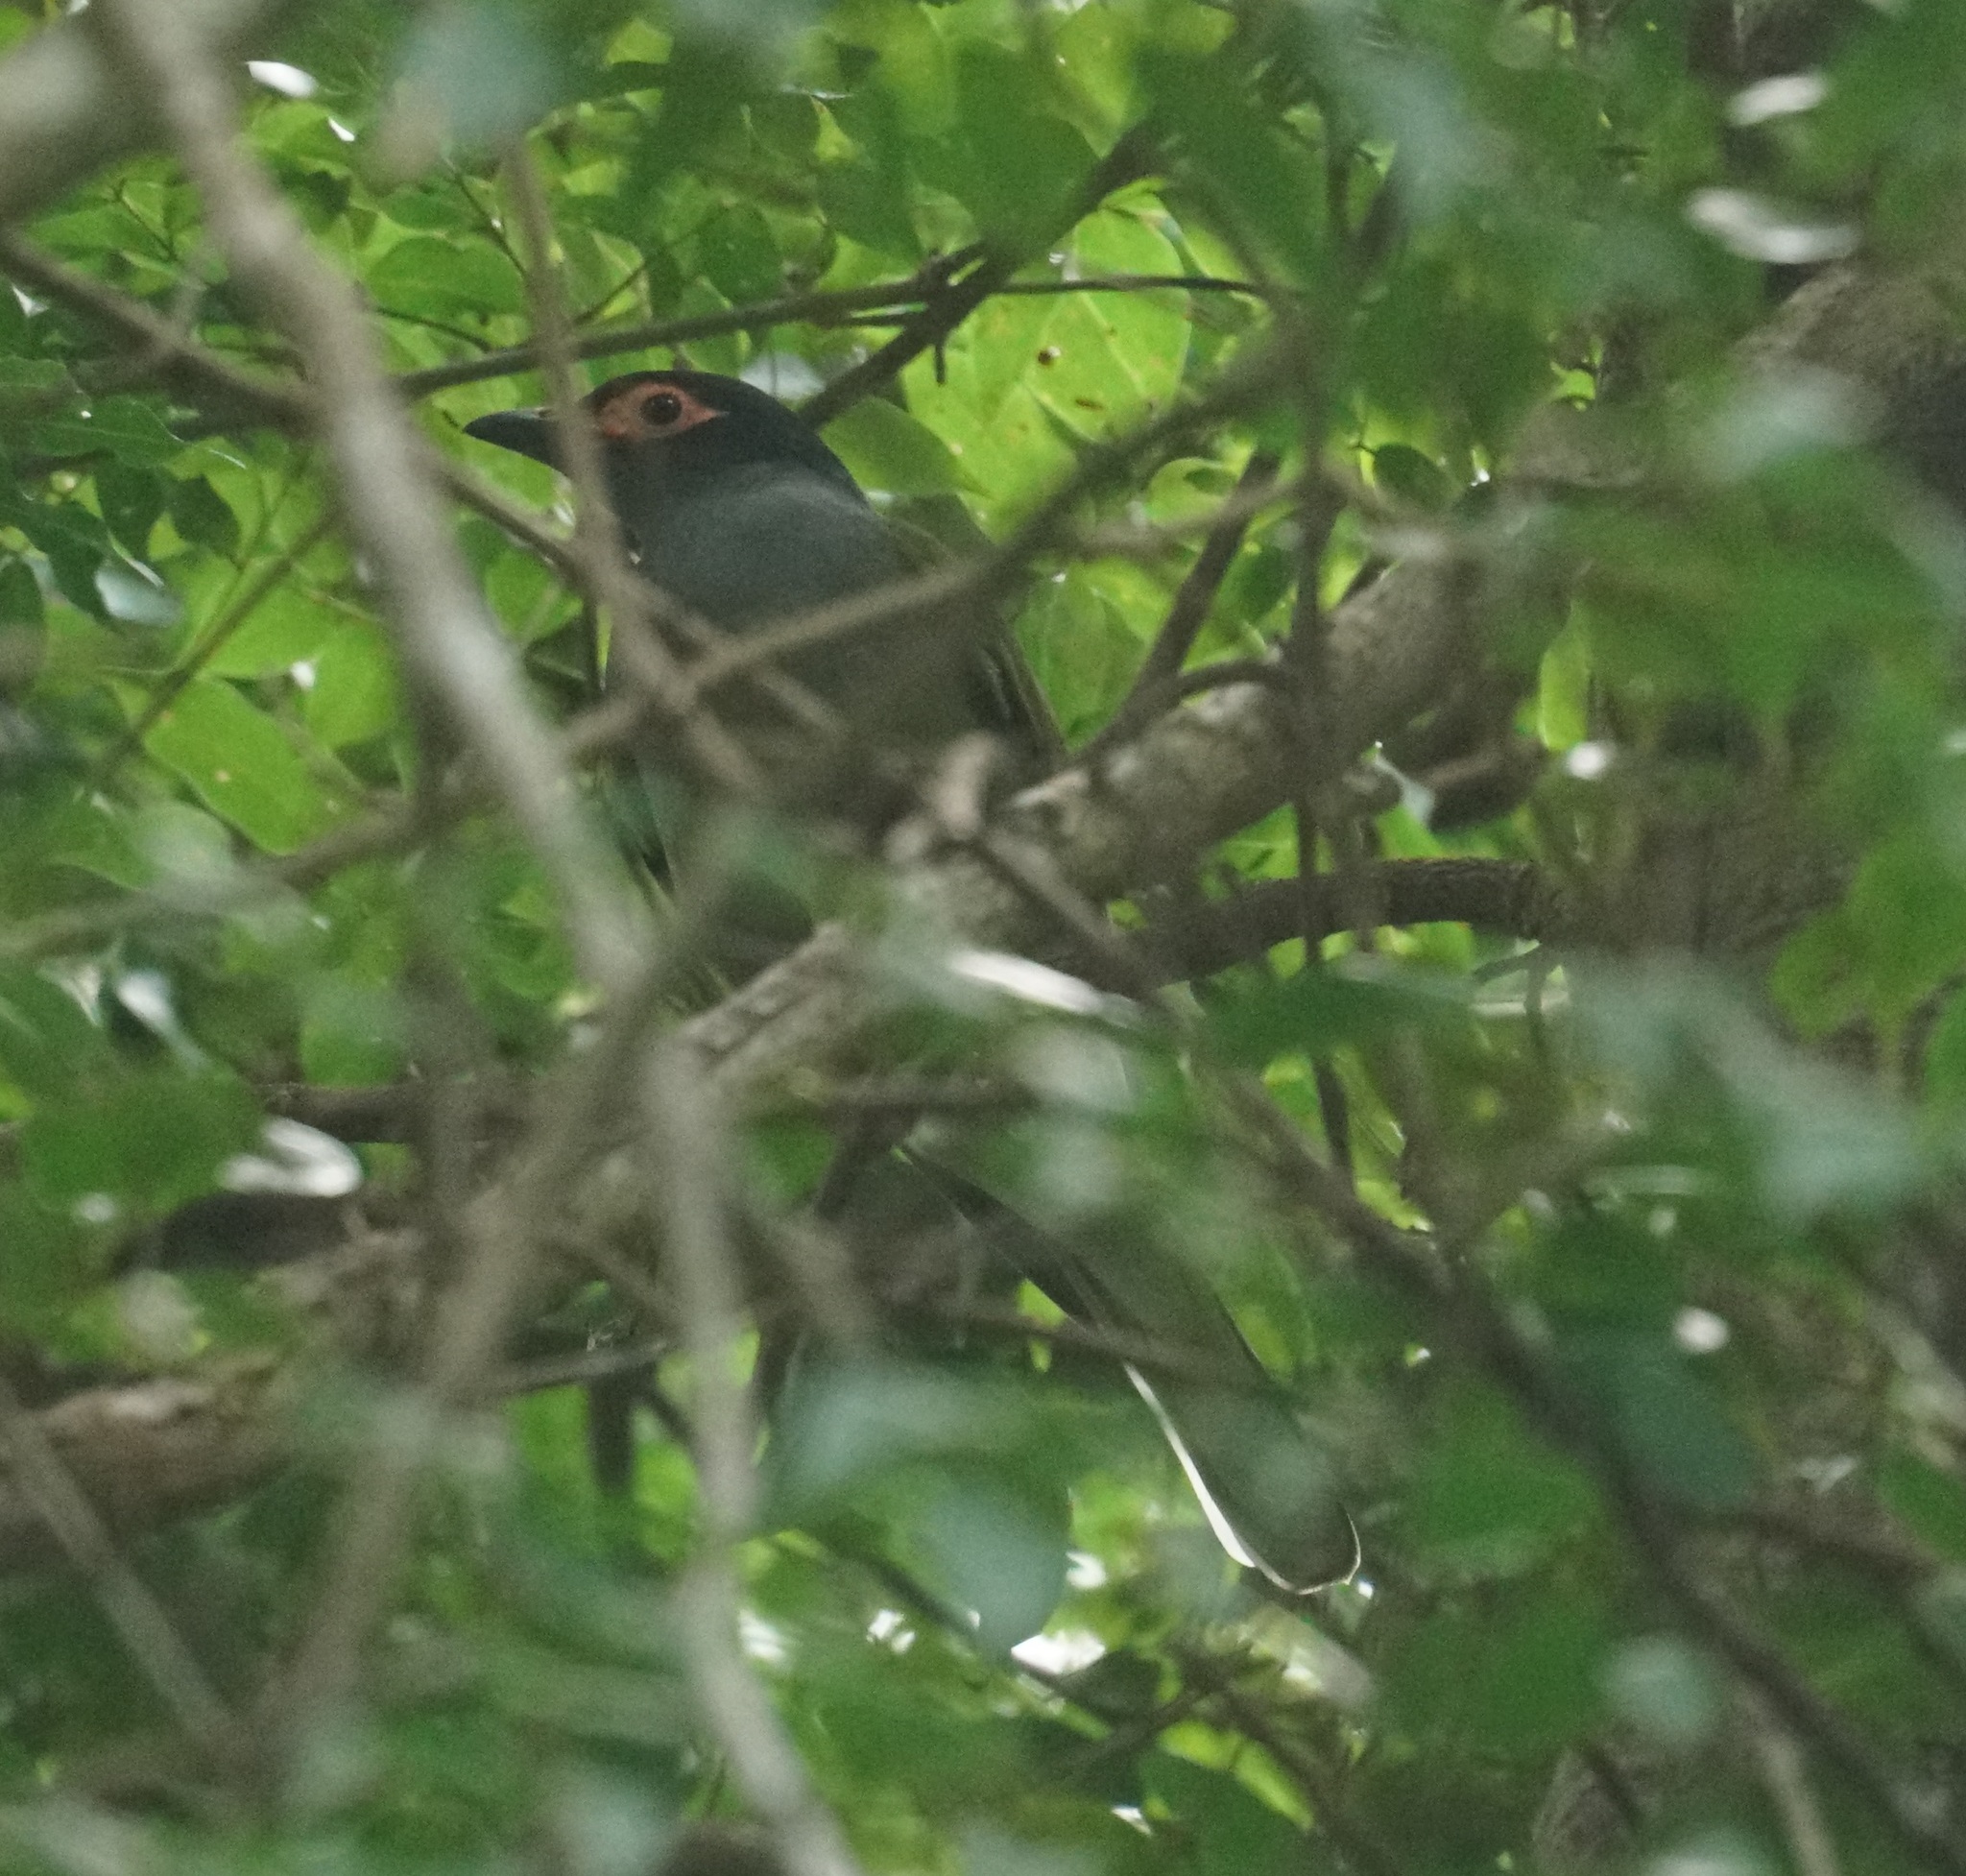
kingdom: Animalia
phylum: Chordata
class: Aves
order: Passeriformes
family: Oriolidae
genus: Sphecotheres
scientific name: Sphecotheres vieilloti
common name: Australasian figbird
